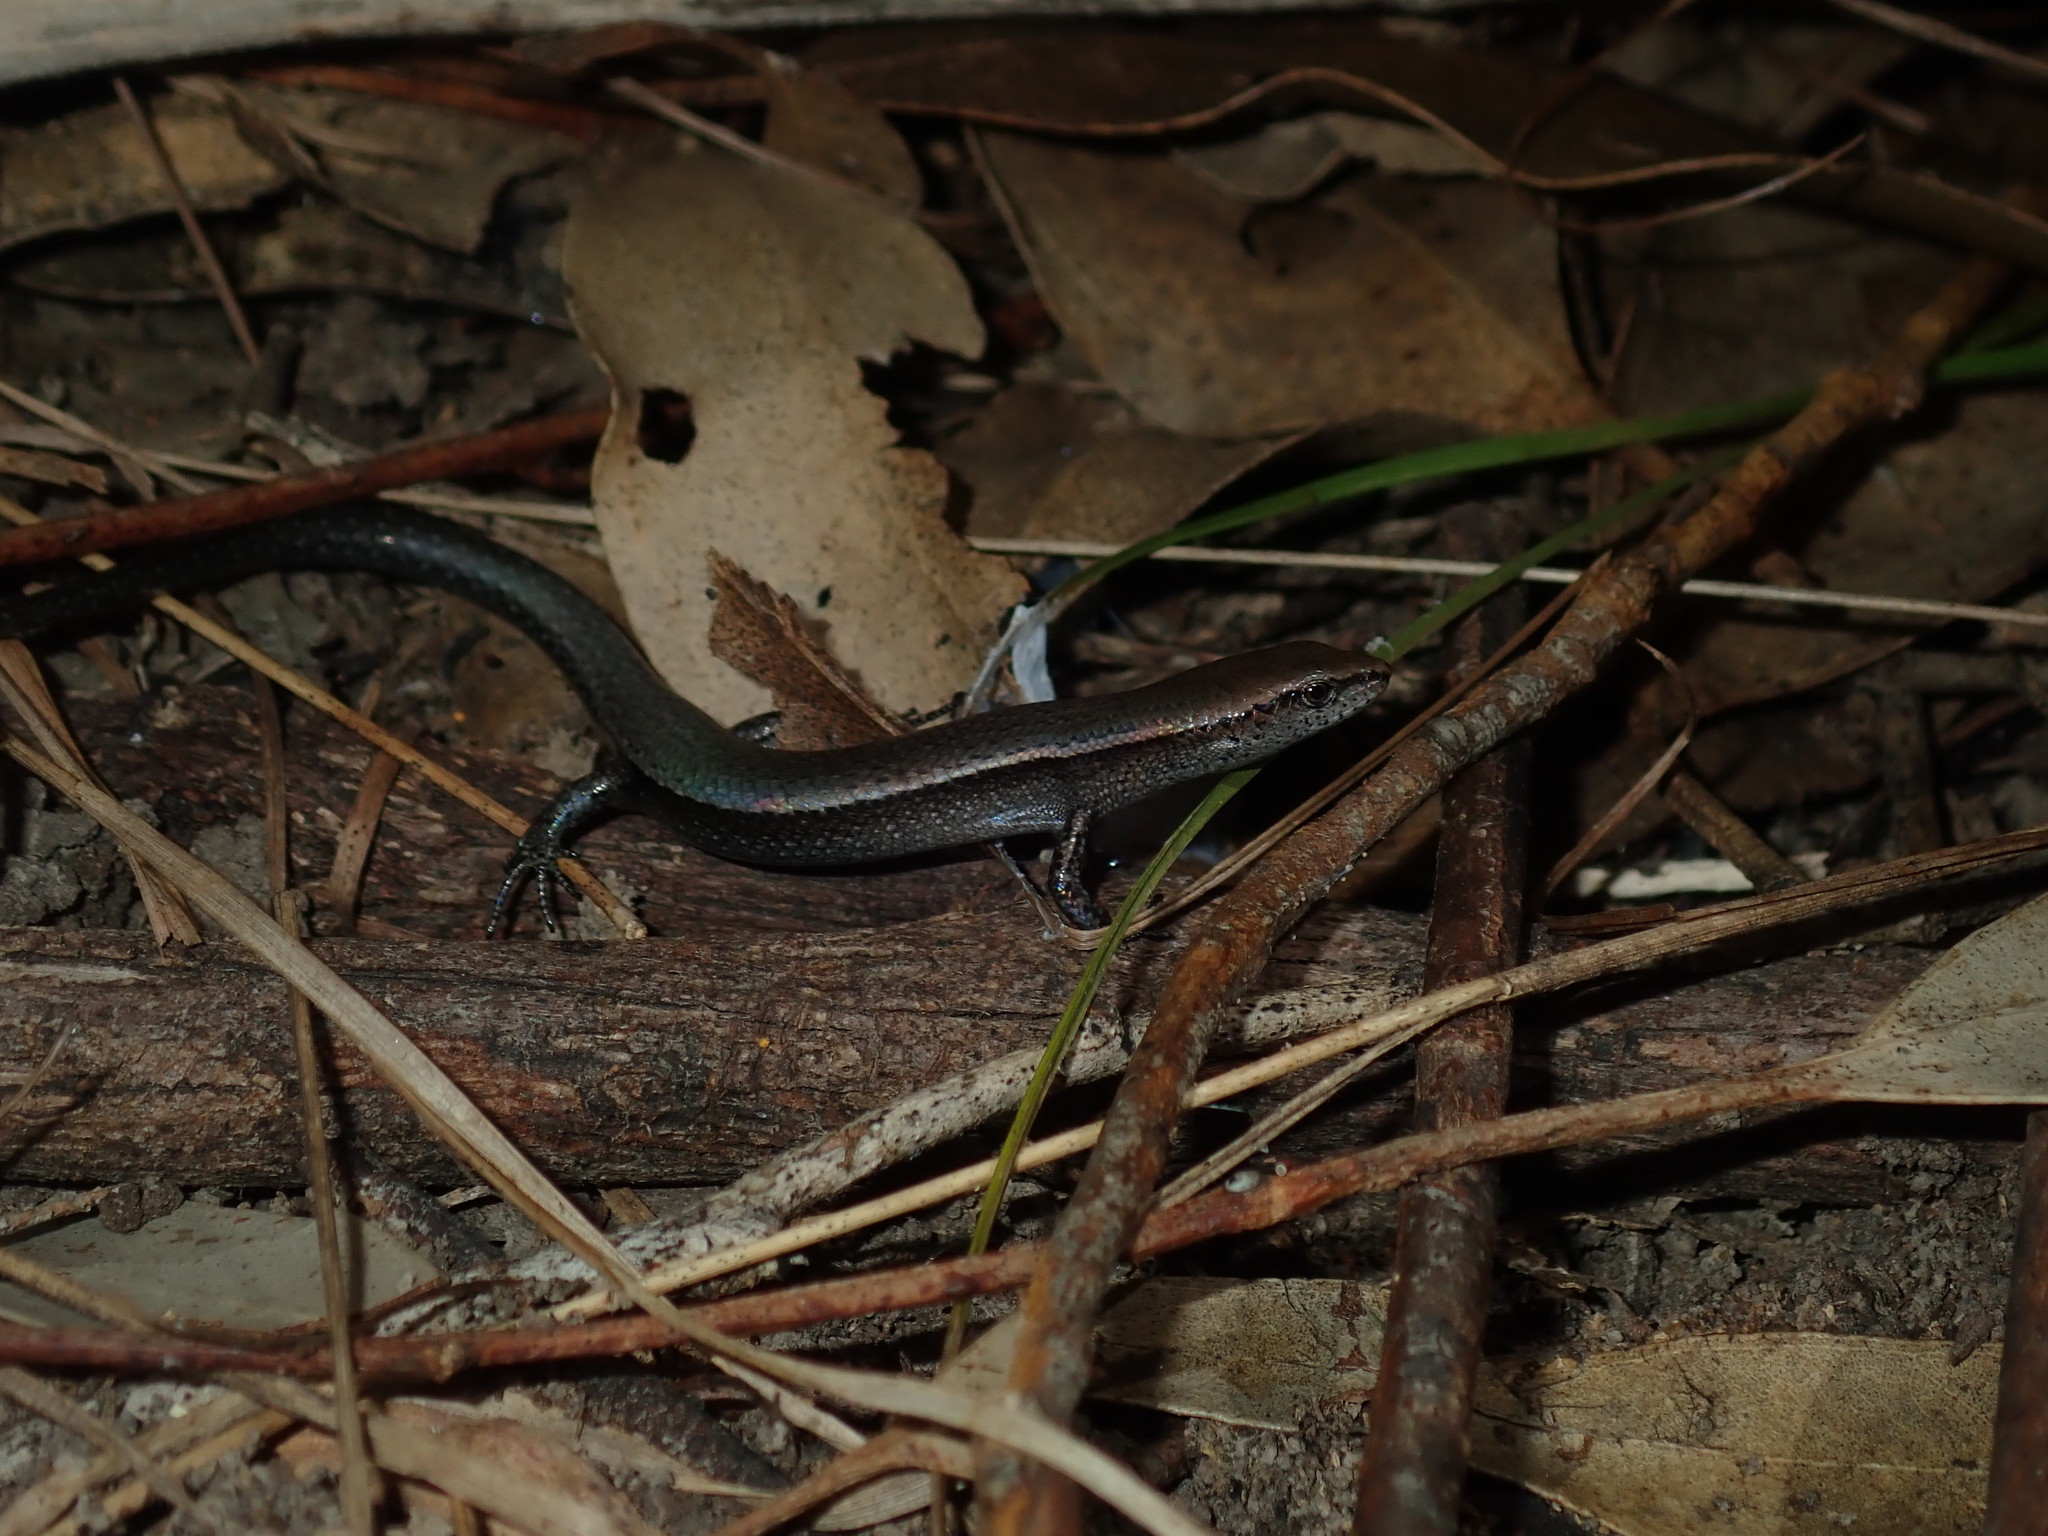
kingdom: Animalia
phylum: Chordata
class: Squamata
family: Scincidae
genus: Lampropholis
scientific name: Lampropholis delicata
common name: Plague skink
